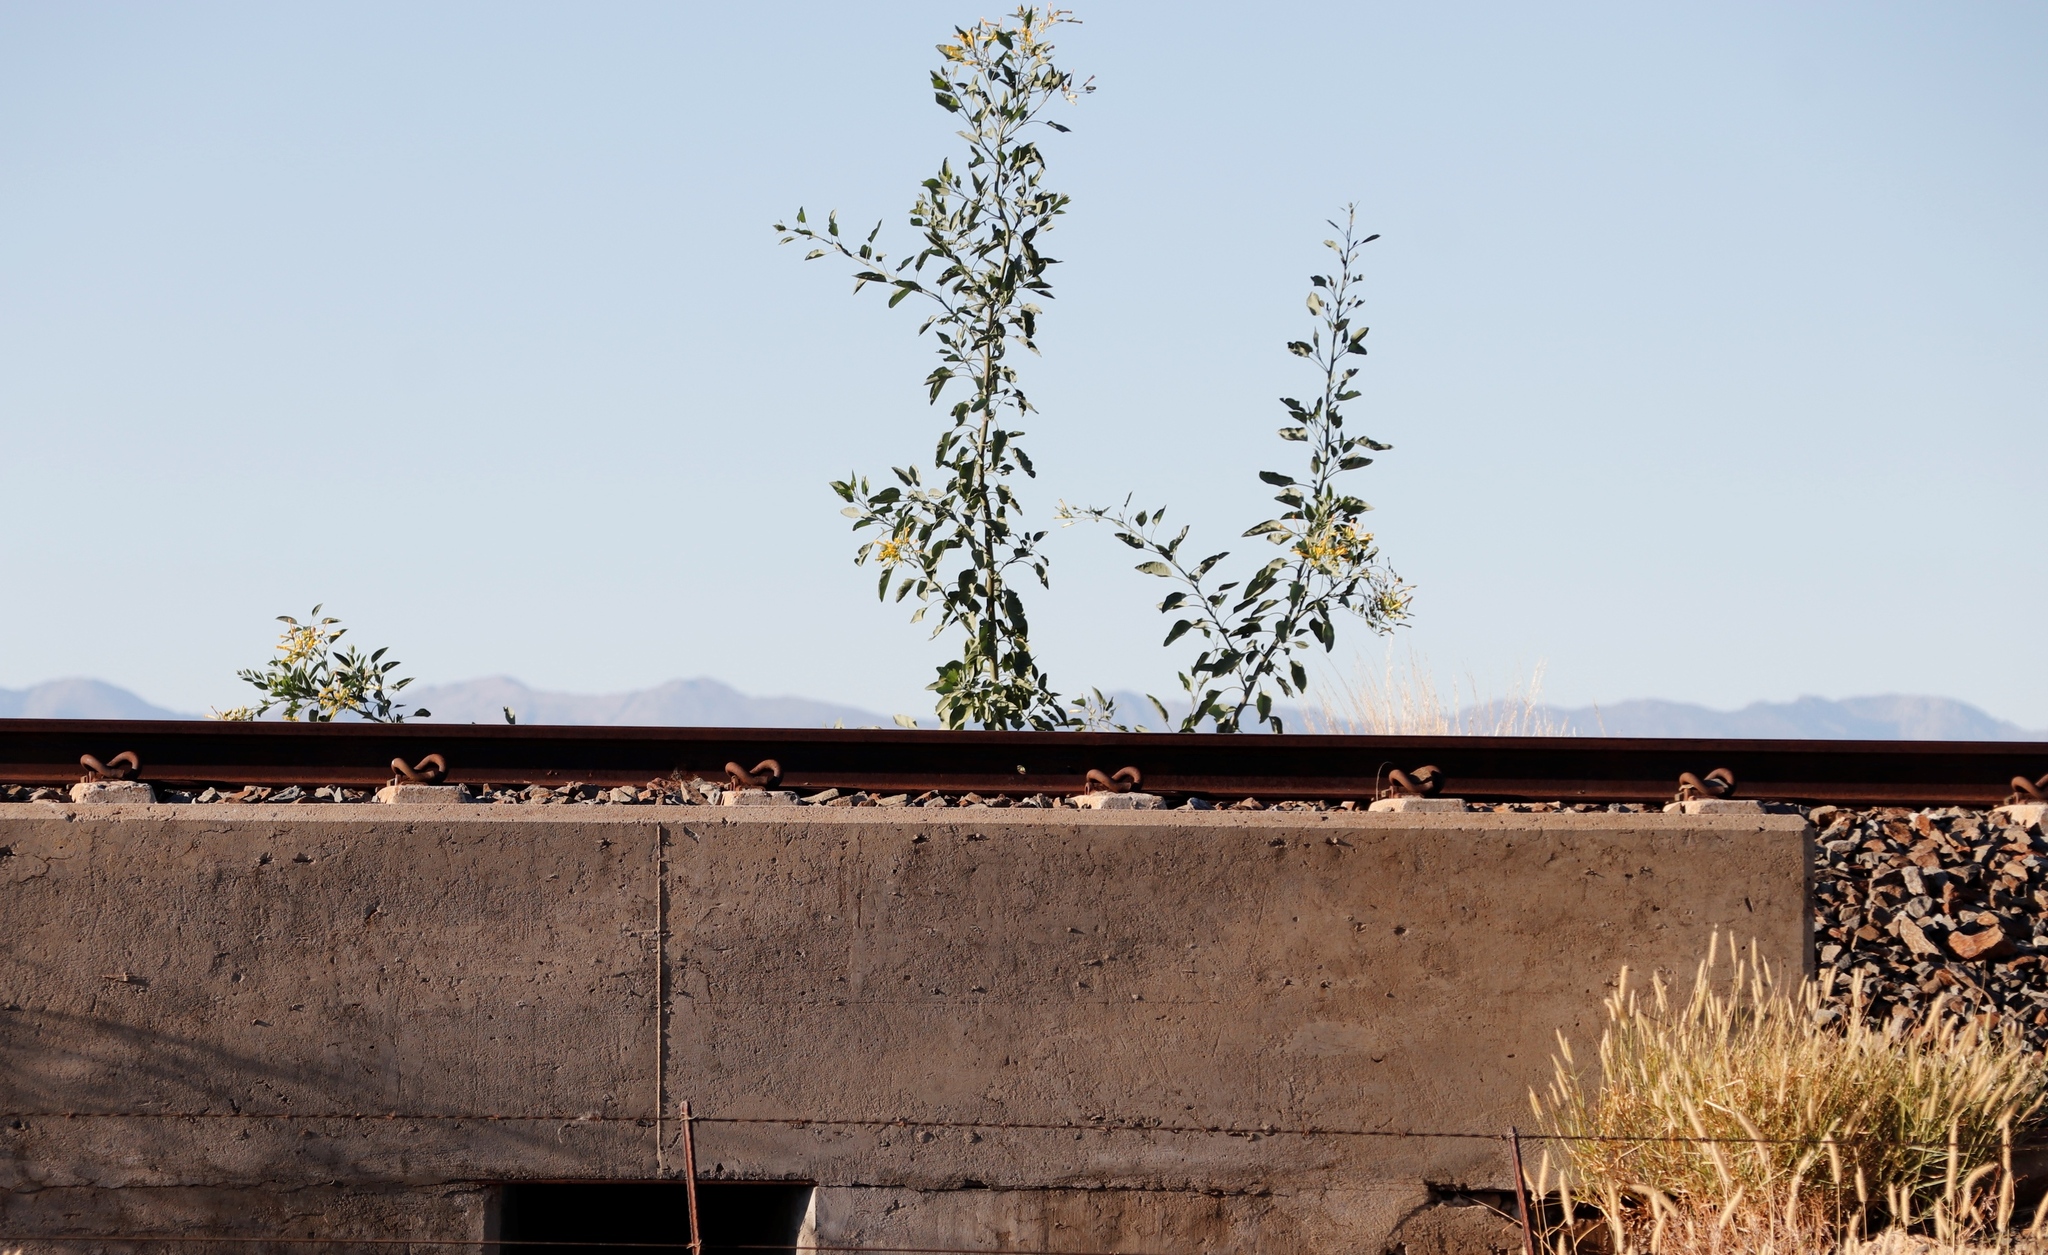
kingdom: Plantae
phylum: Tracheophyta
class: Magnoliopsida
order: Solanales
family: Solanaceae
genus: Nicotiana
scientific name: Nicotiana glauca
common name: Tree tobacco
